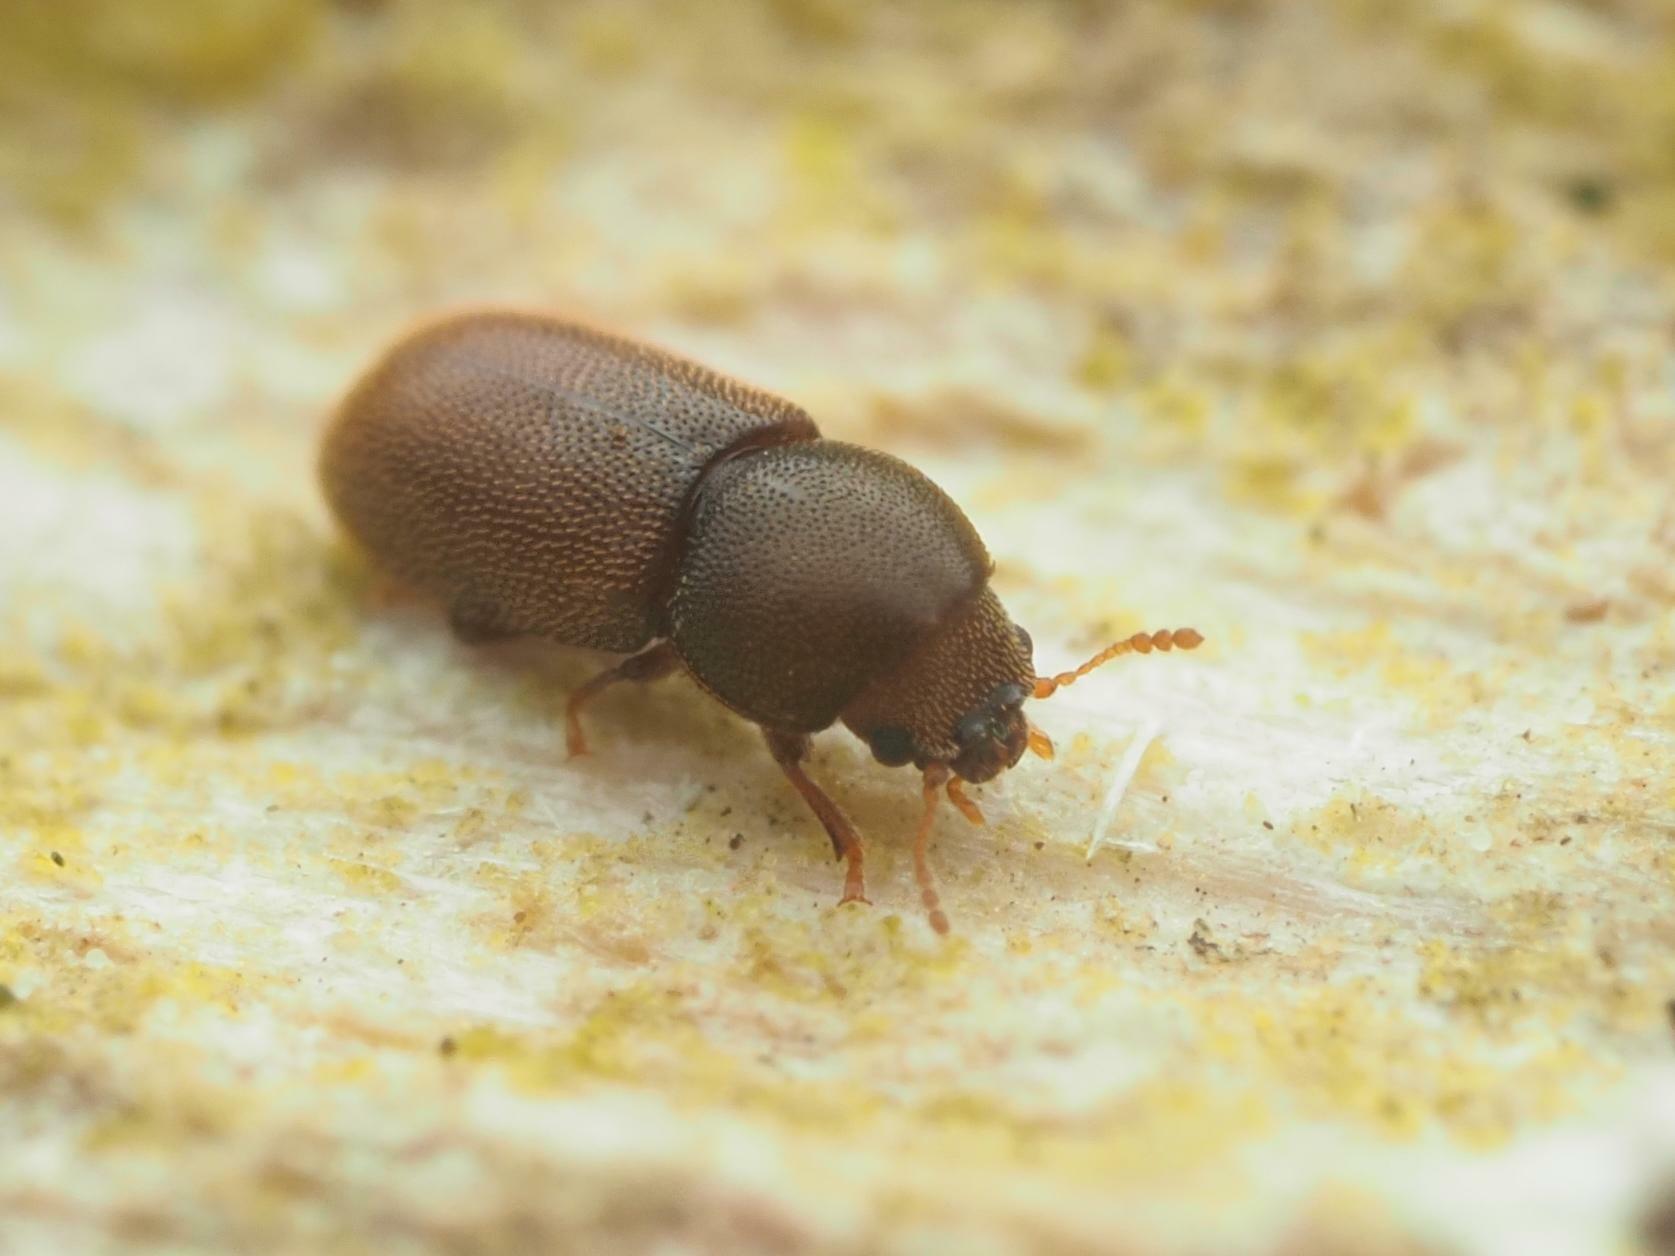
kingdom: Animalia
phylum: Arthropoda
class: Insecta
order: Coleoptera
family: Ciidae
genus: Cis
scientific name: Cis fusciclavis
